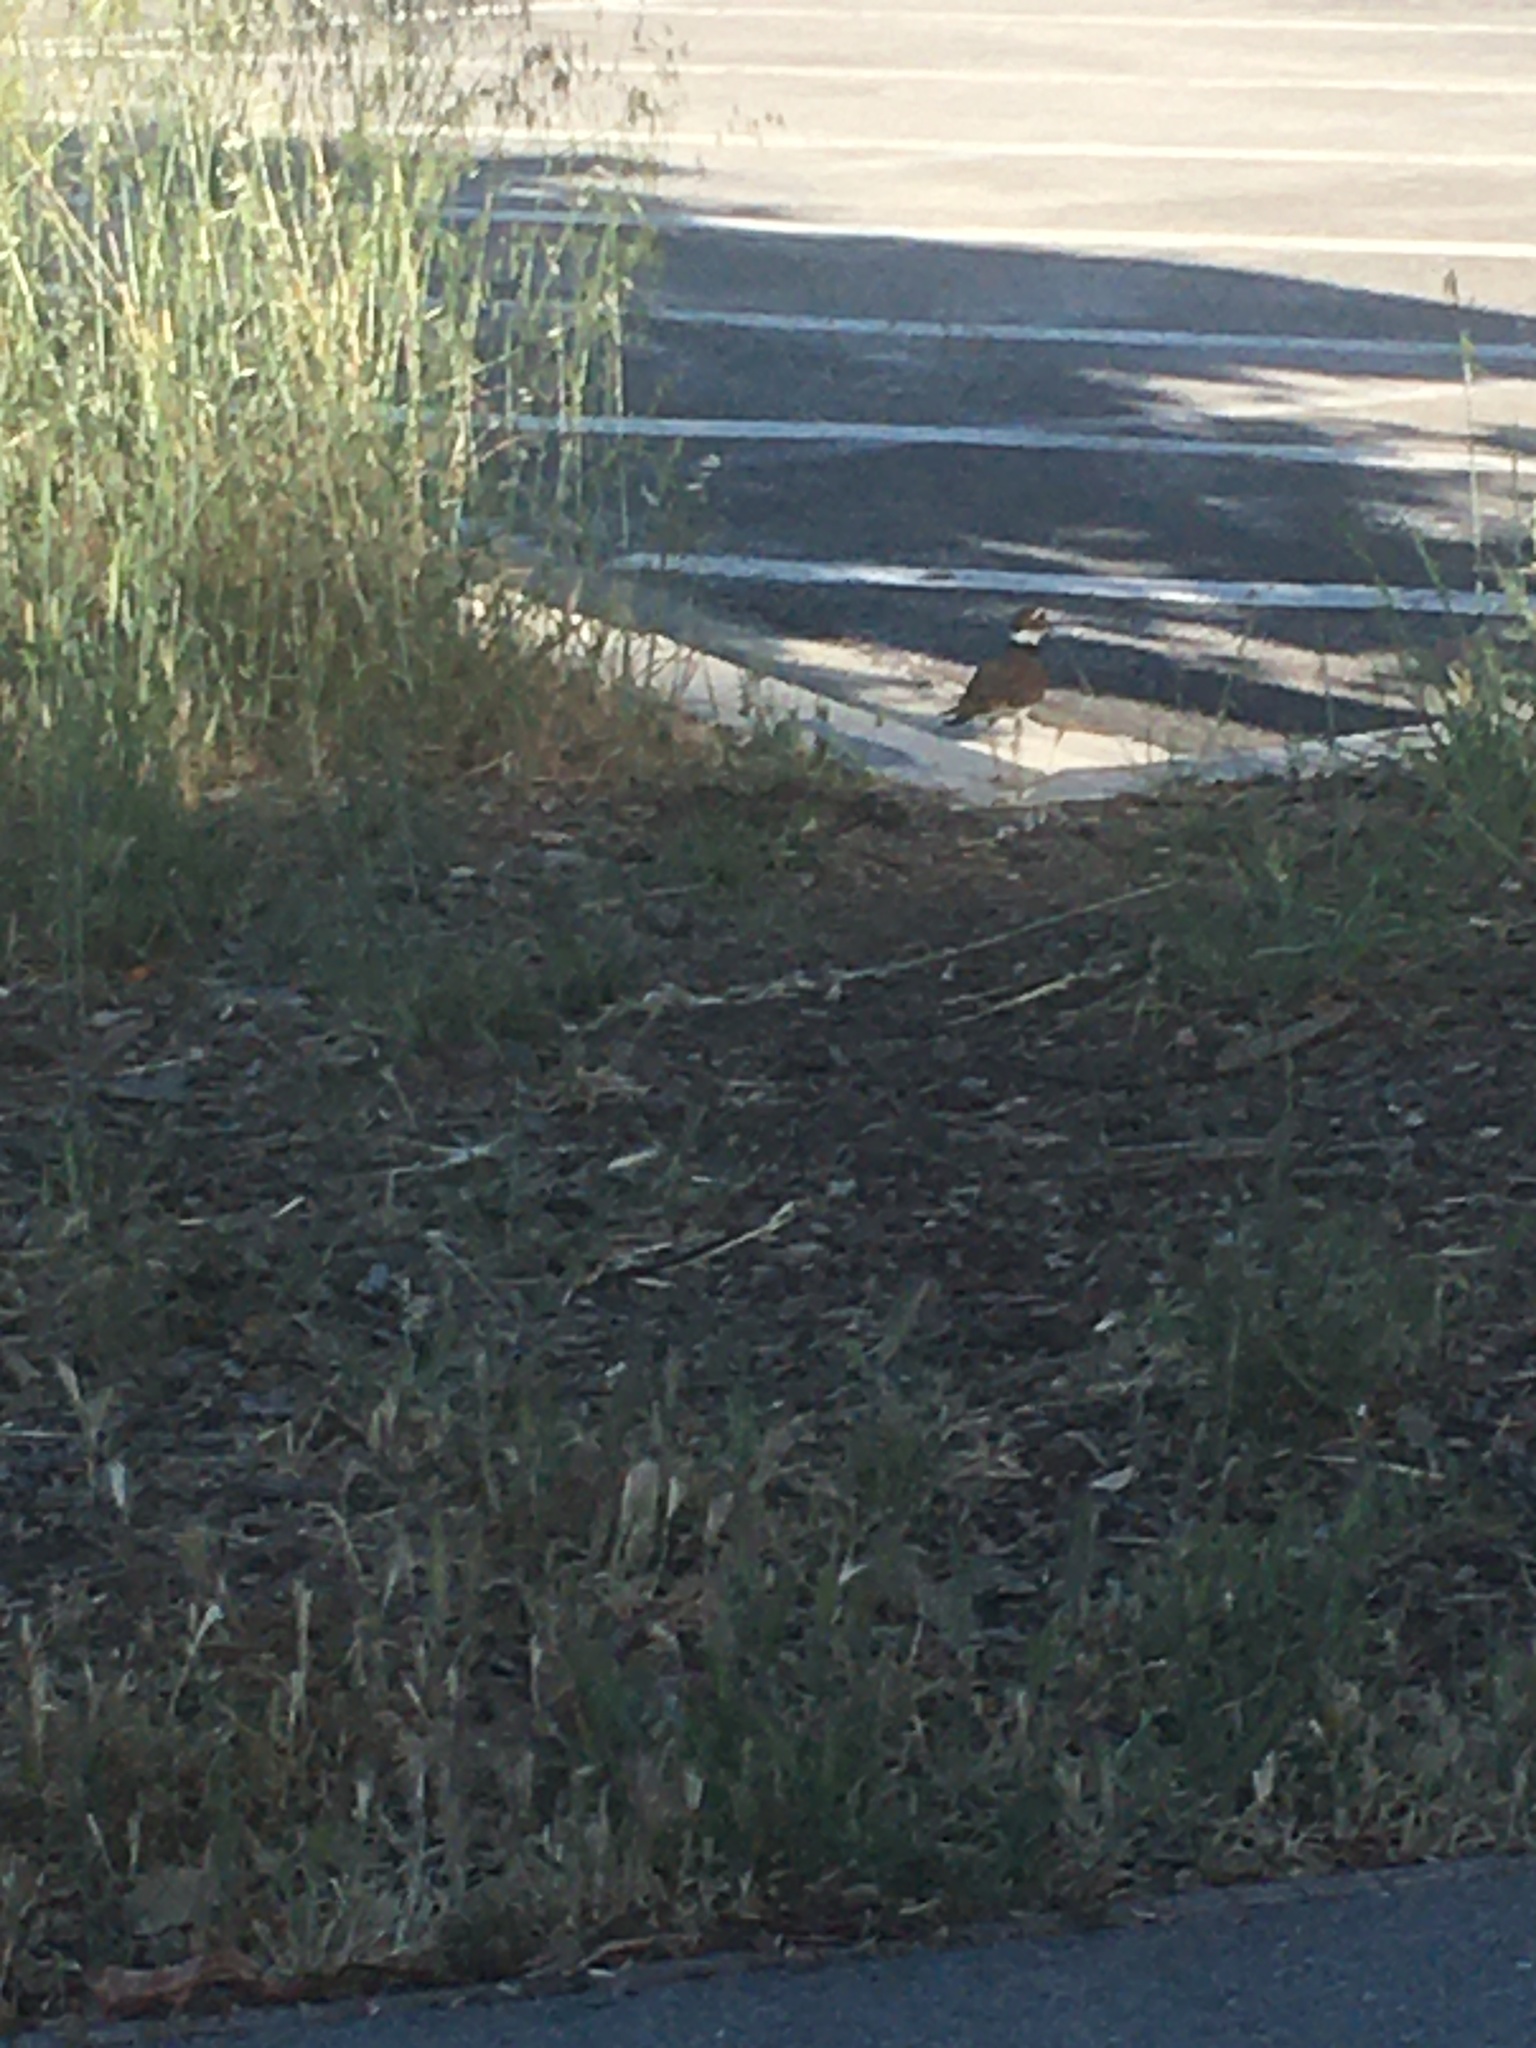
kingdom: Animalia
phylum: Chordata
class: Aves
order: Charadriiformes
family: Charadriidae
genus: Charadrius
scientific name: Charadrius vociferus
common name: Killdeer
